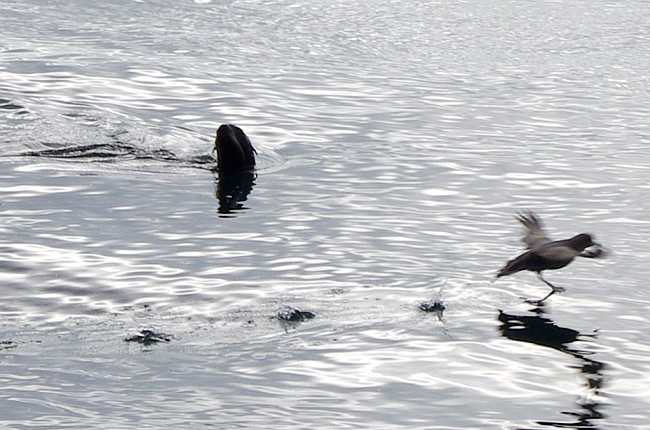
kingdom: Animalia
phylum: Chordata
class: Mammalia
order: Carnivora
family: Otariidae
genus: Callorhinus
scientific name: Callorhinus ursinus
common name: Northern fur seal
